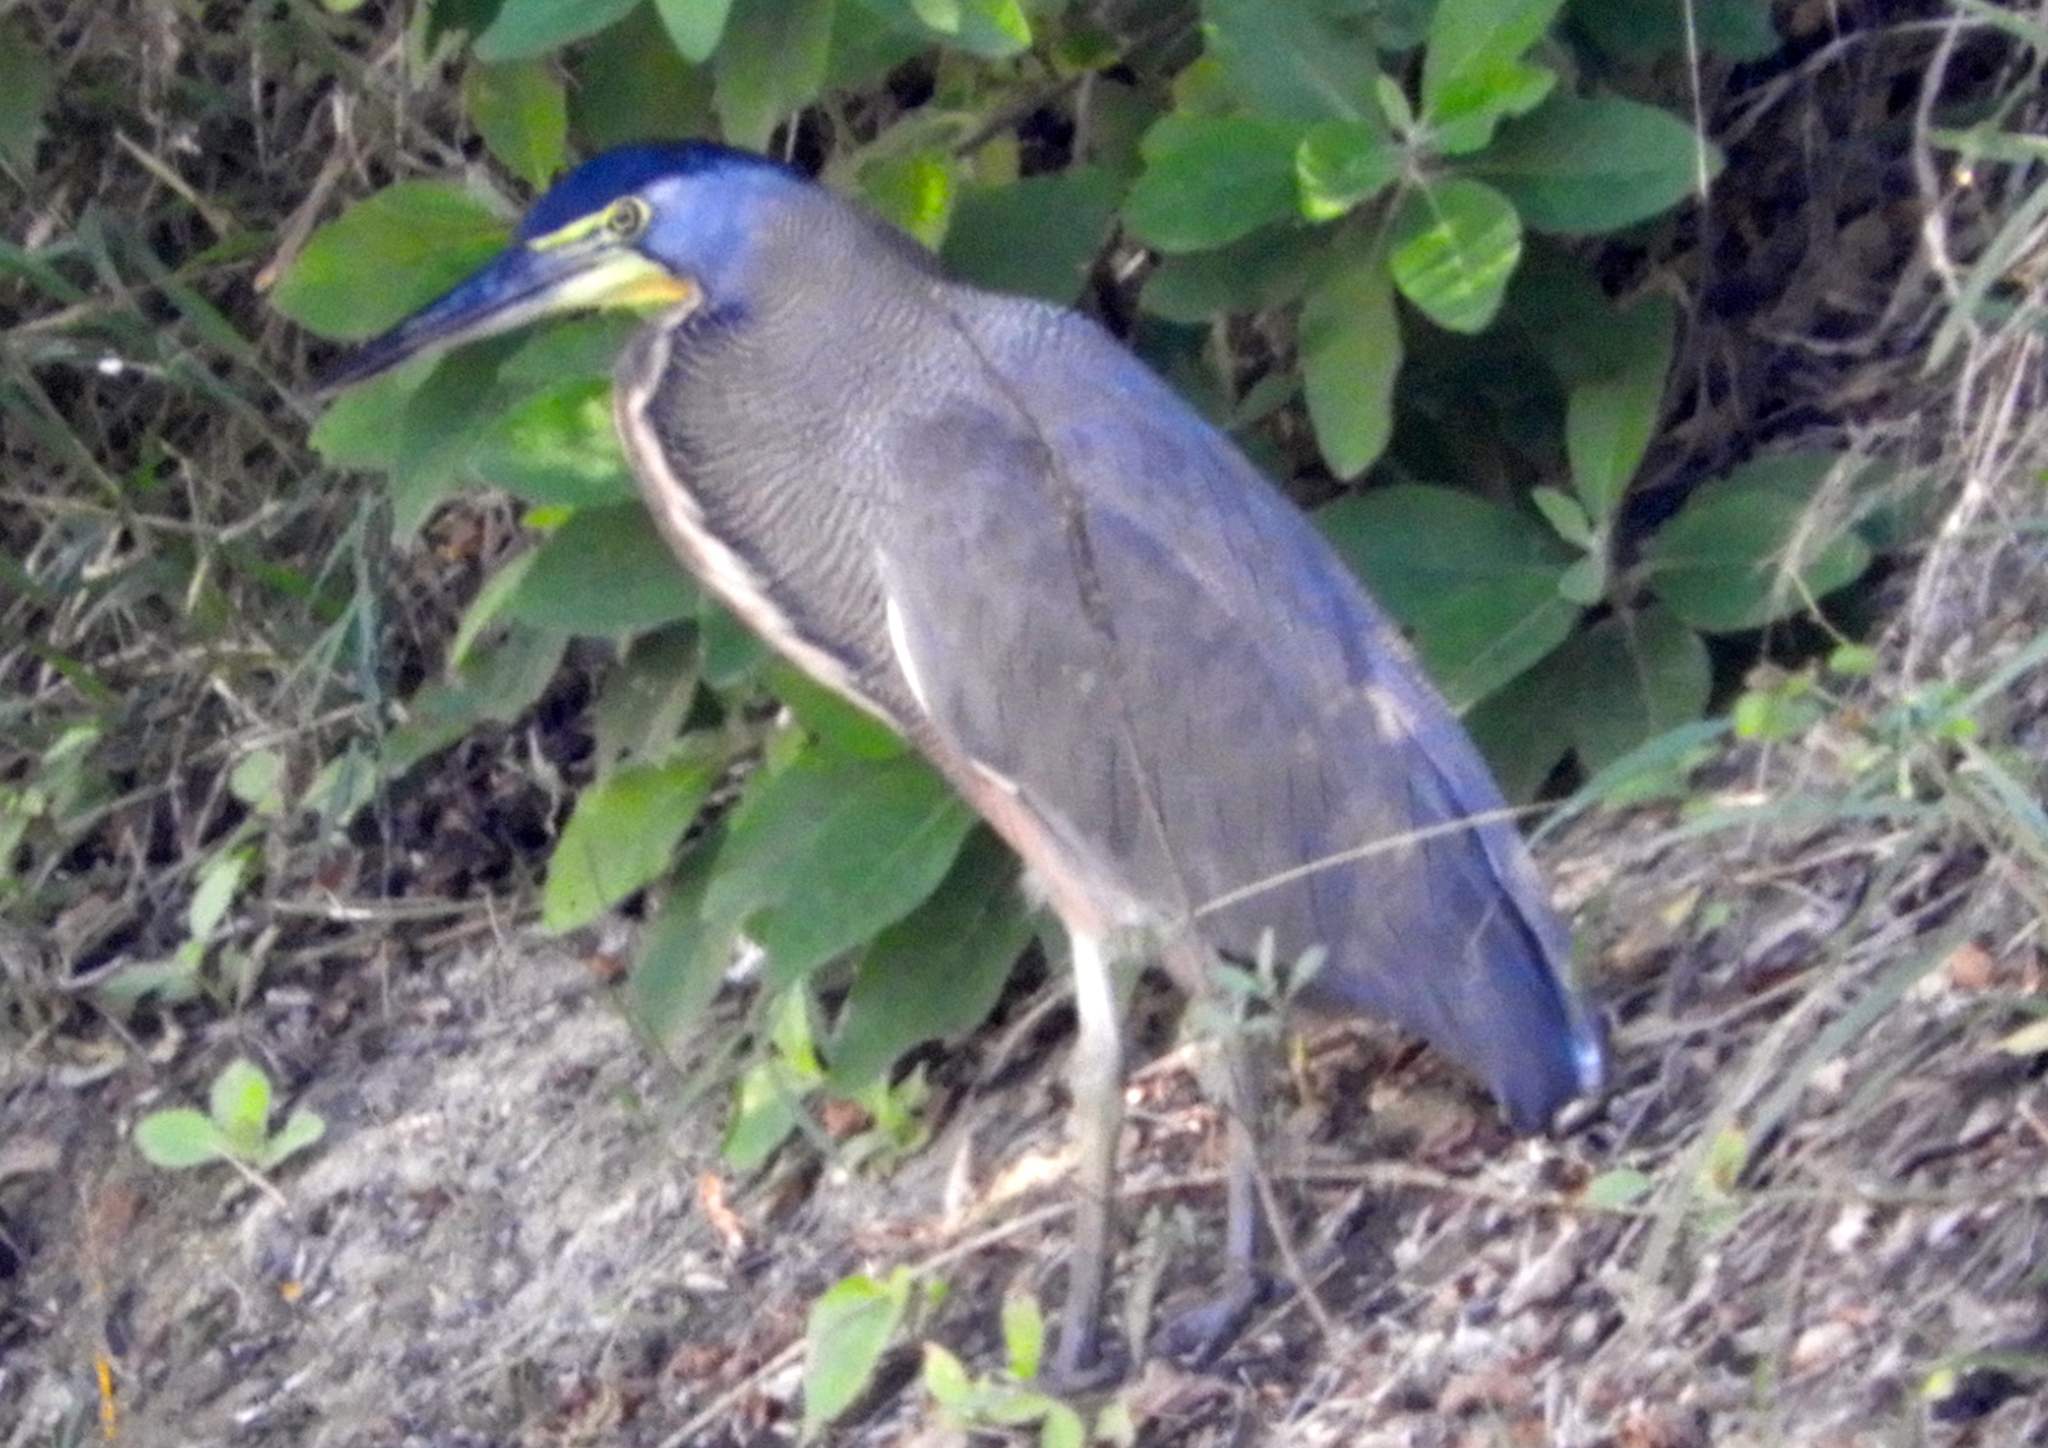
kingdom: Animalia
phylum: Chordata
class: Aves
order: Pelecaniformes
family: Ardeidae
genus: Tigrisoma
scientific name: Tigrisoma mexicanum
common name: Bare-throated tiger-heron
